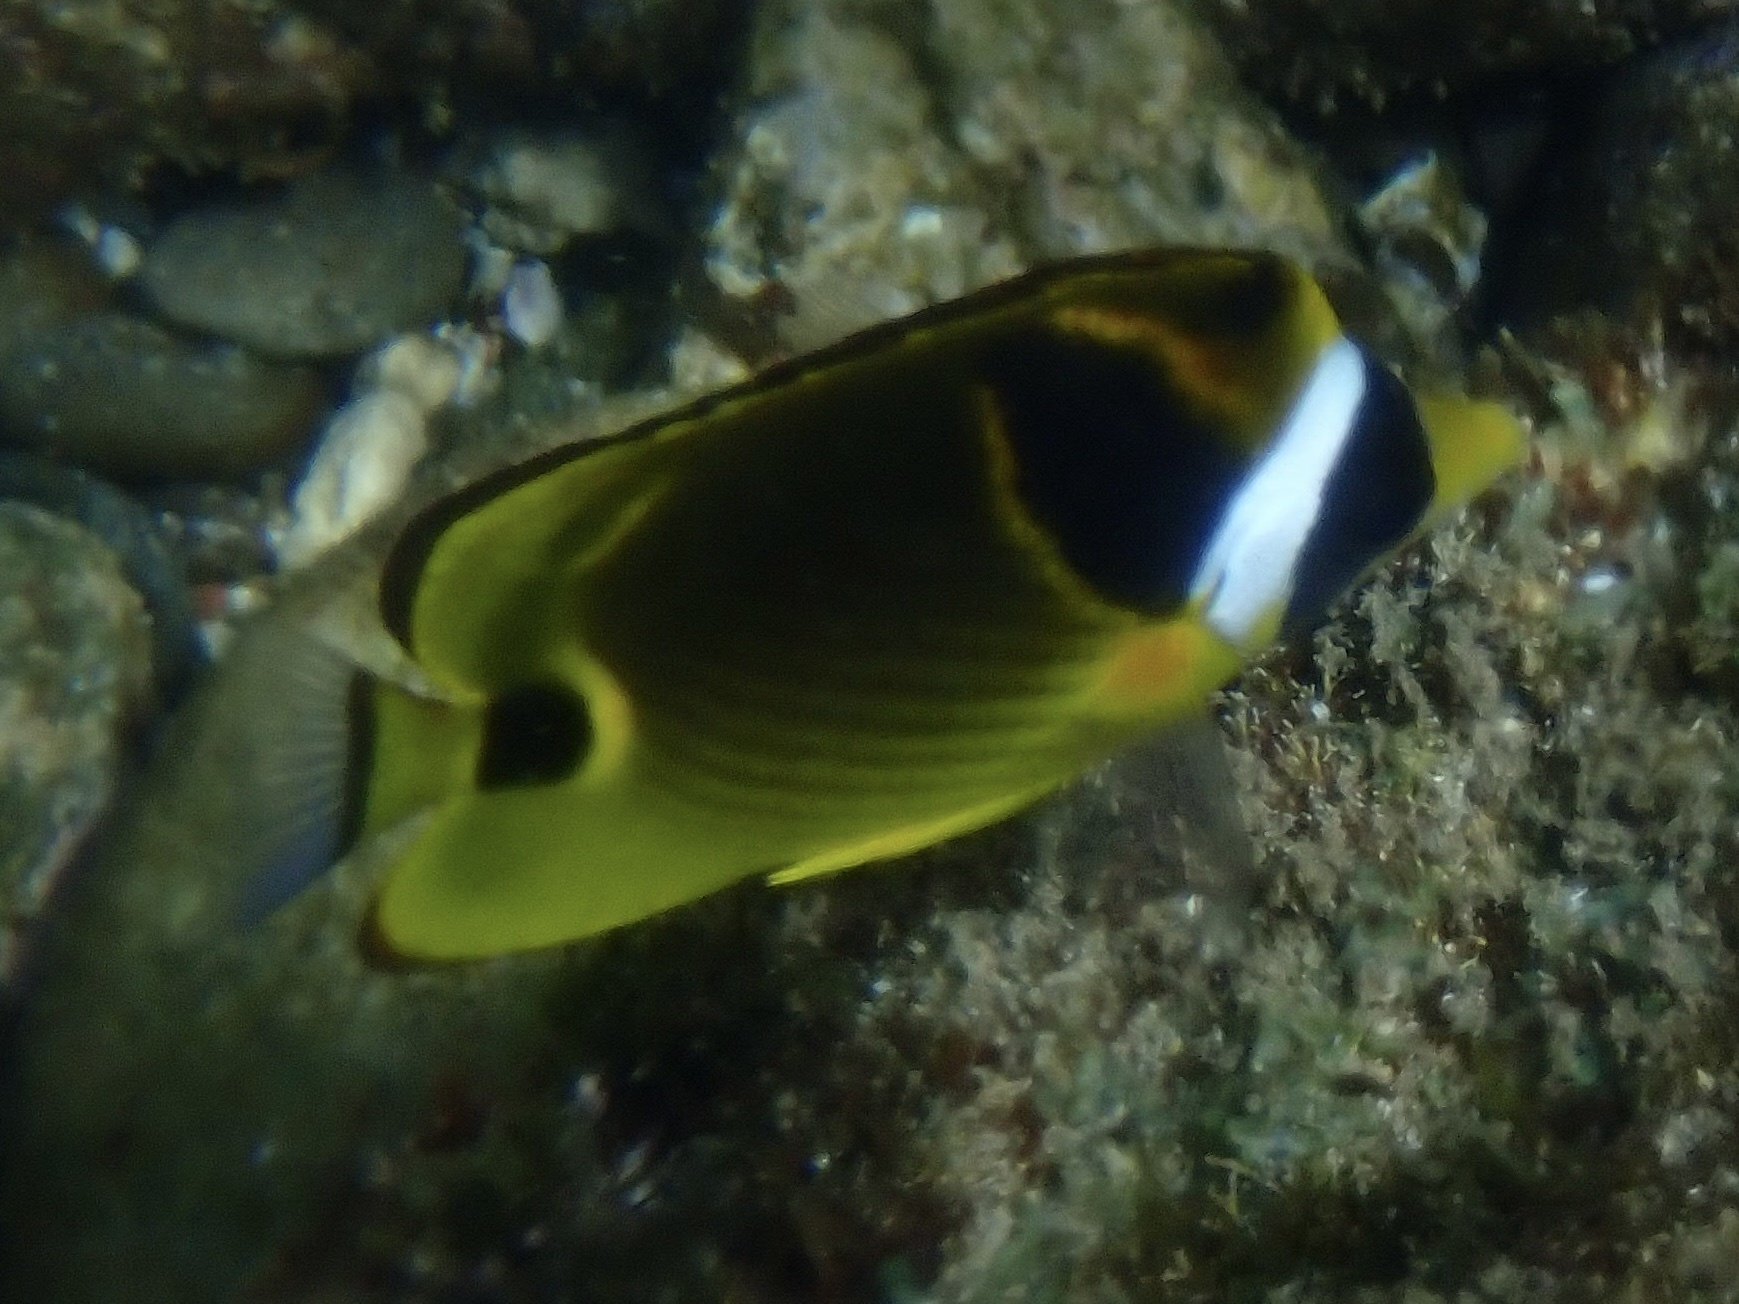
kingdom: Animalia
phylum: Chordata
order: Perciformes
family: Chaetodontidae
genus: Chaetodon
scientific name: Chaetodon lunula
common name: Raccoon butterflyfish
